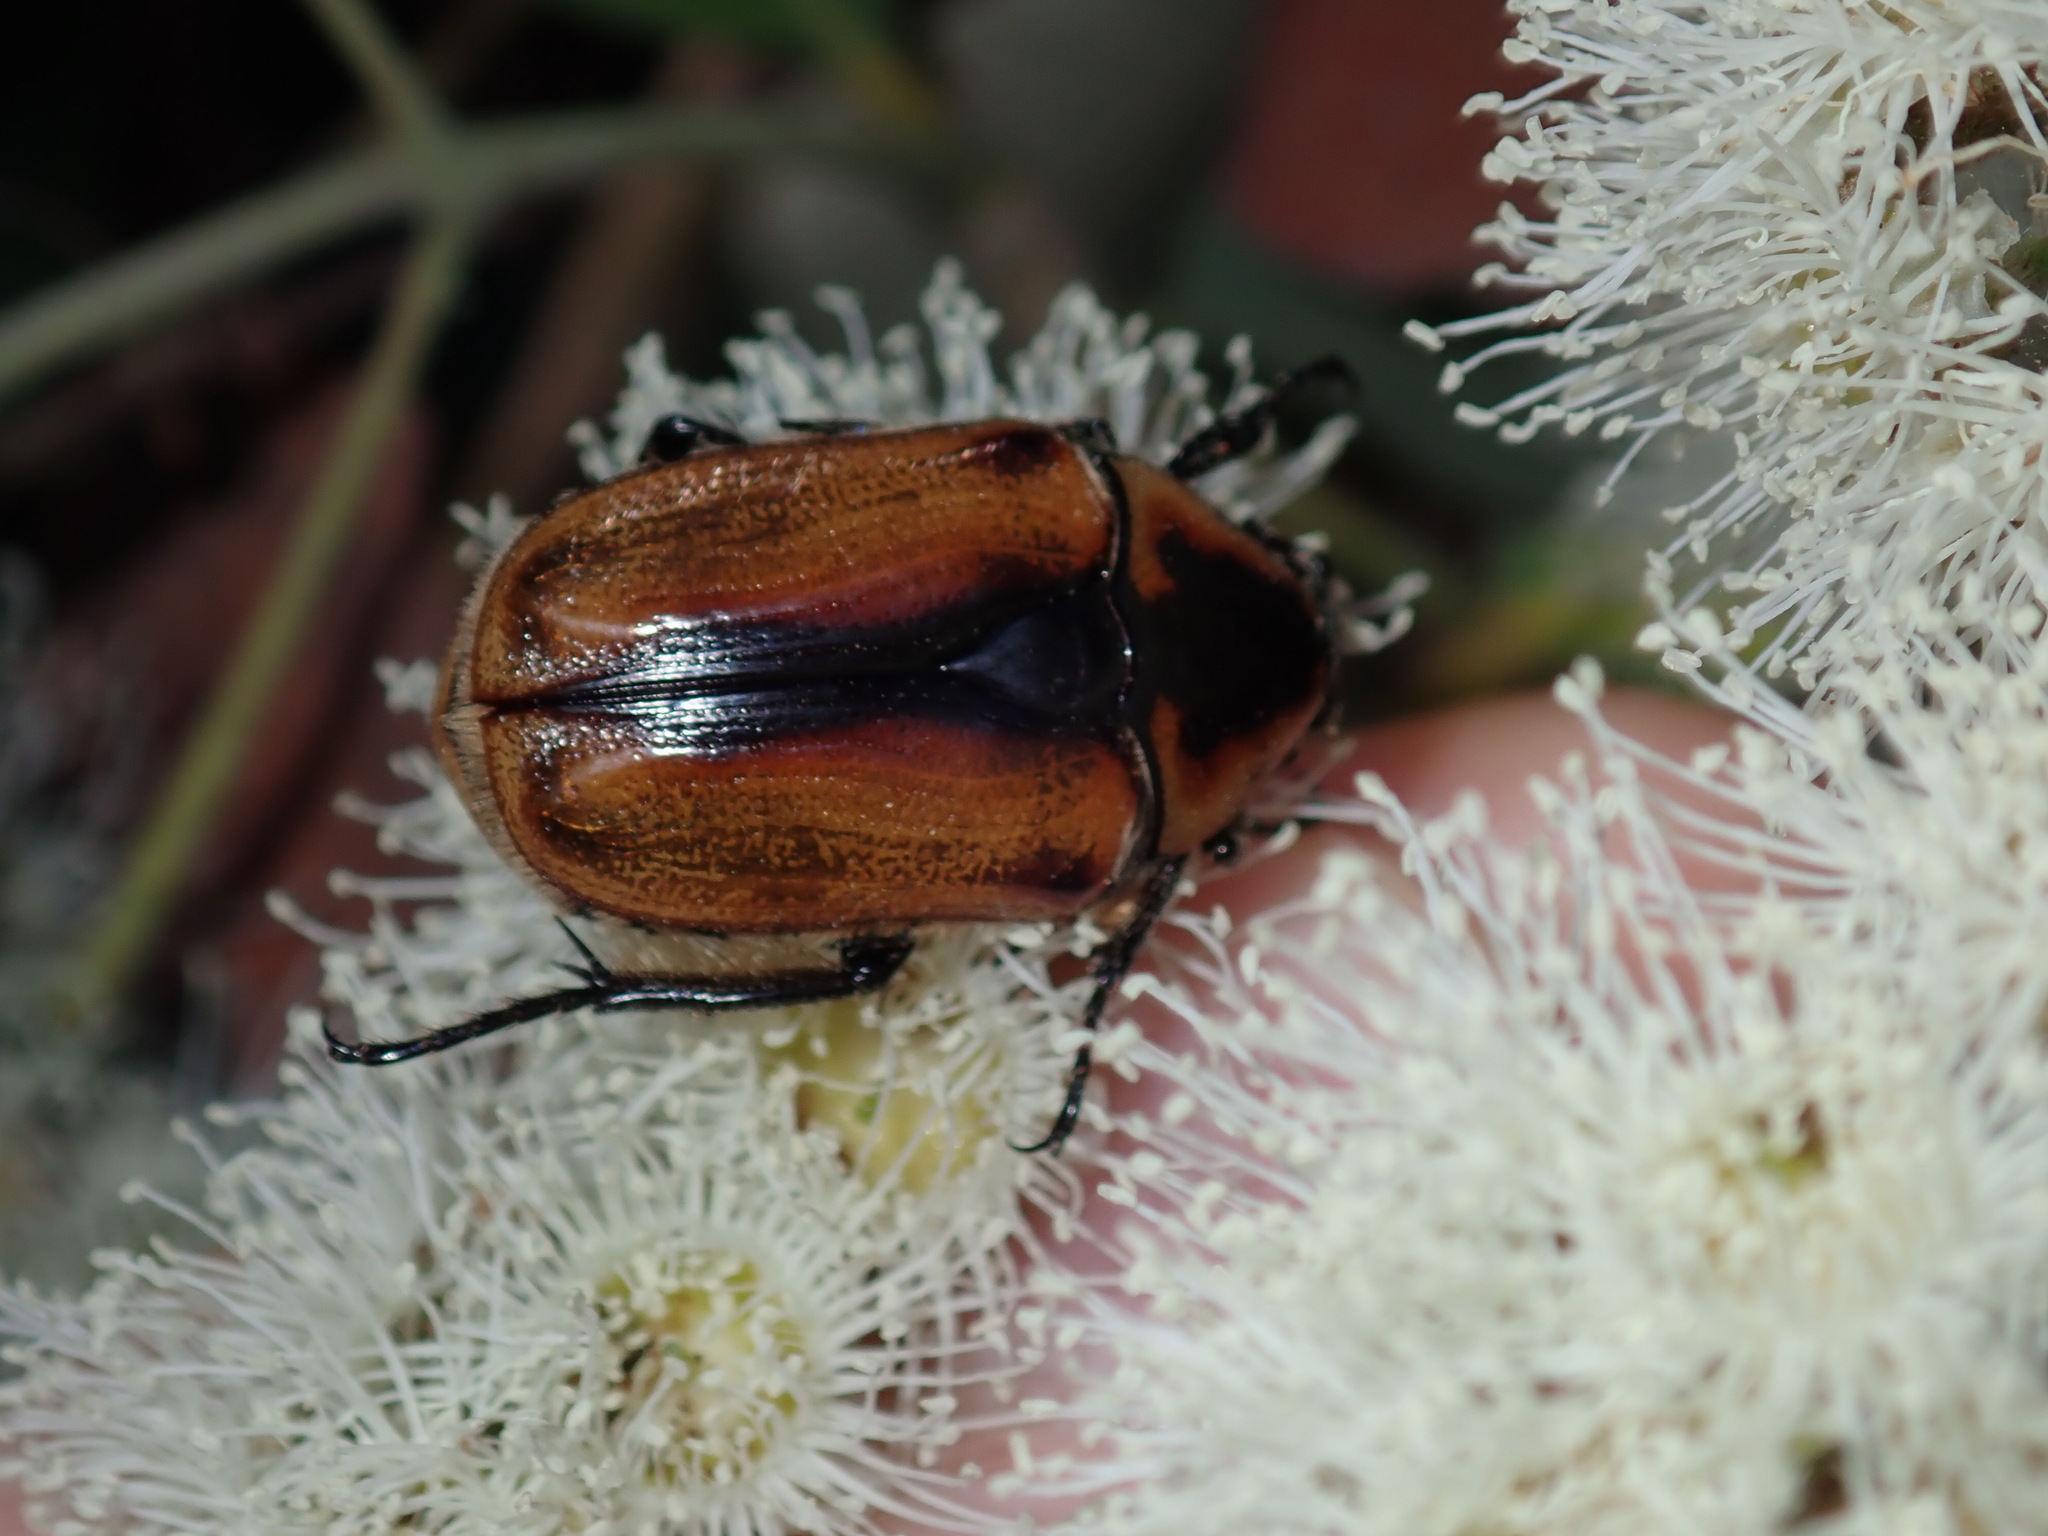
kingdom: Animalia
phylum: Arthropoda
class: Insecta
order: Coleoptera
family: Scarabaeidae
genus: Chondropyga
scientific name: Chondropyga dorsalis
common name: Cowboy beetle
